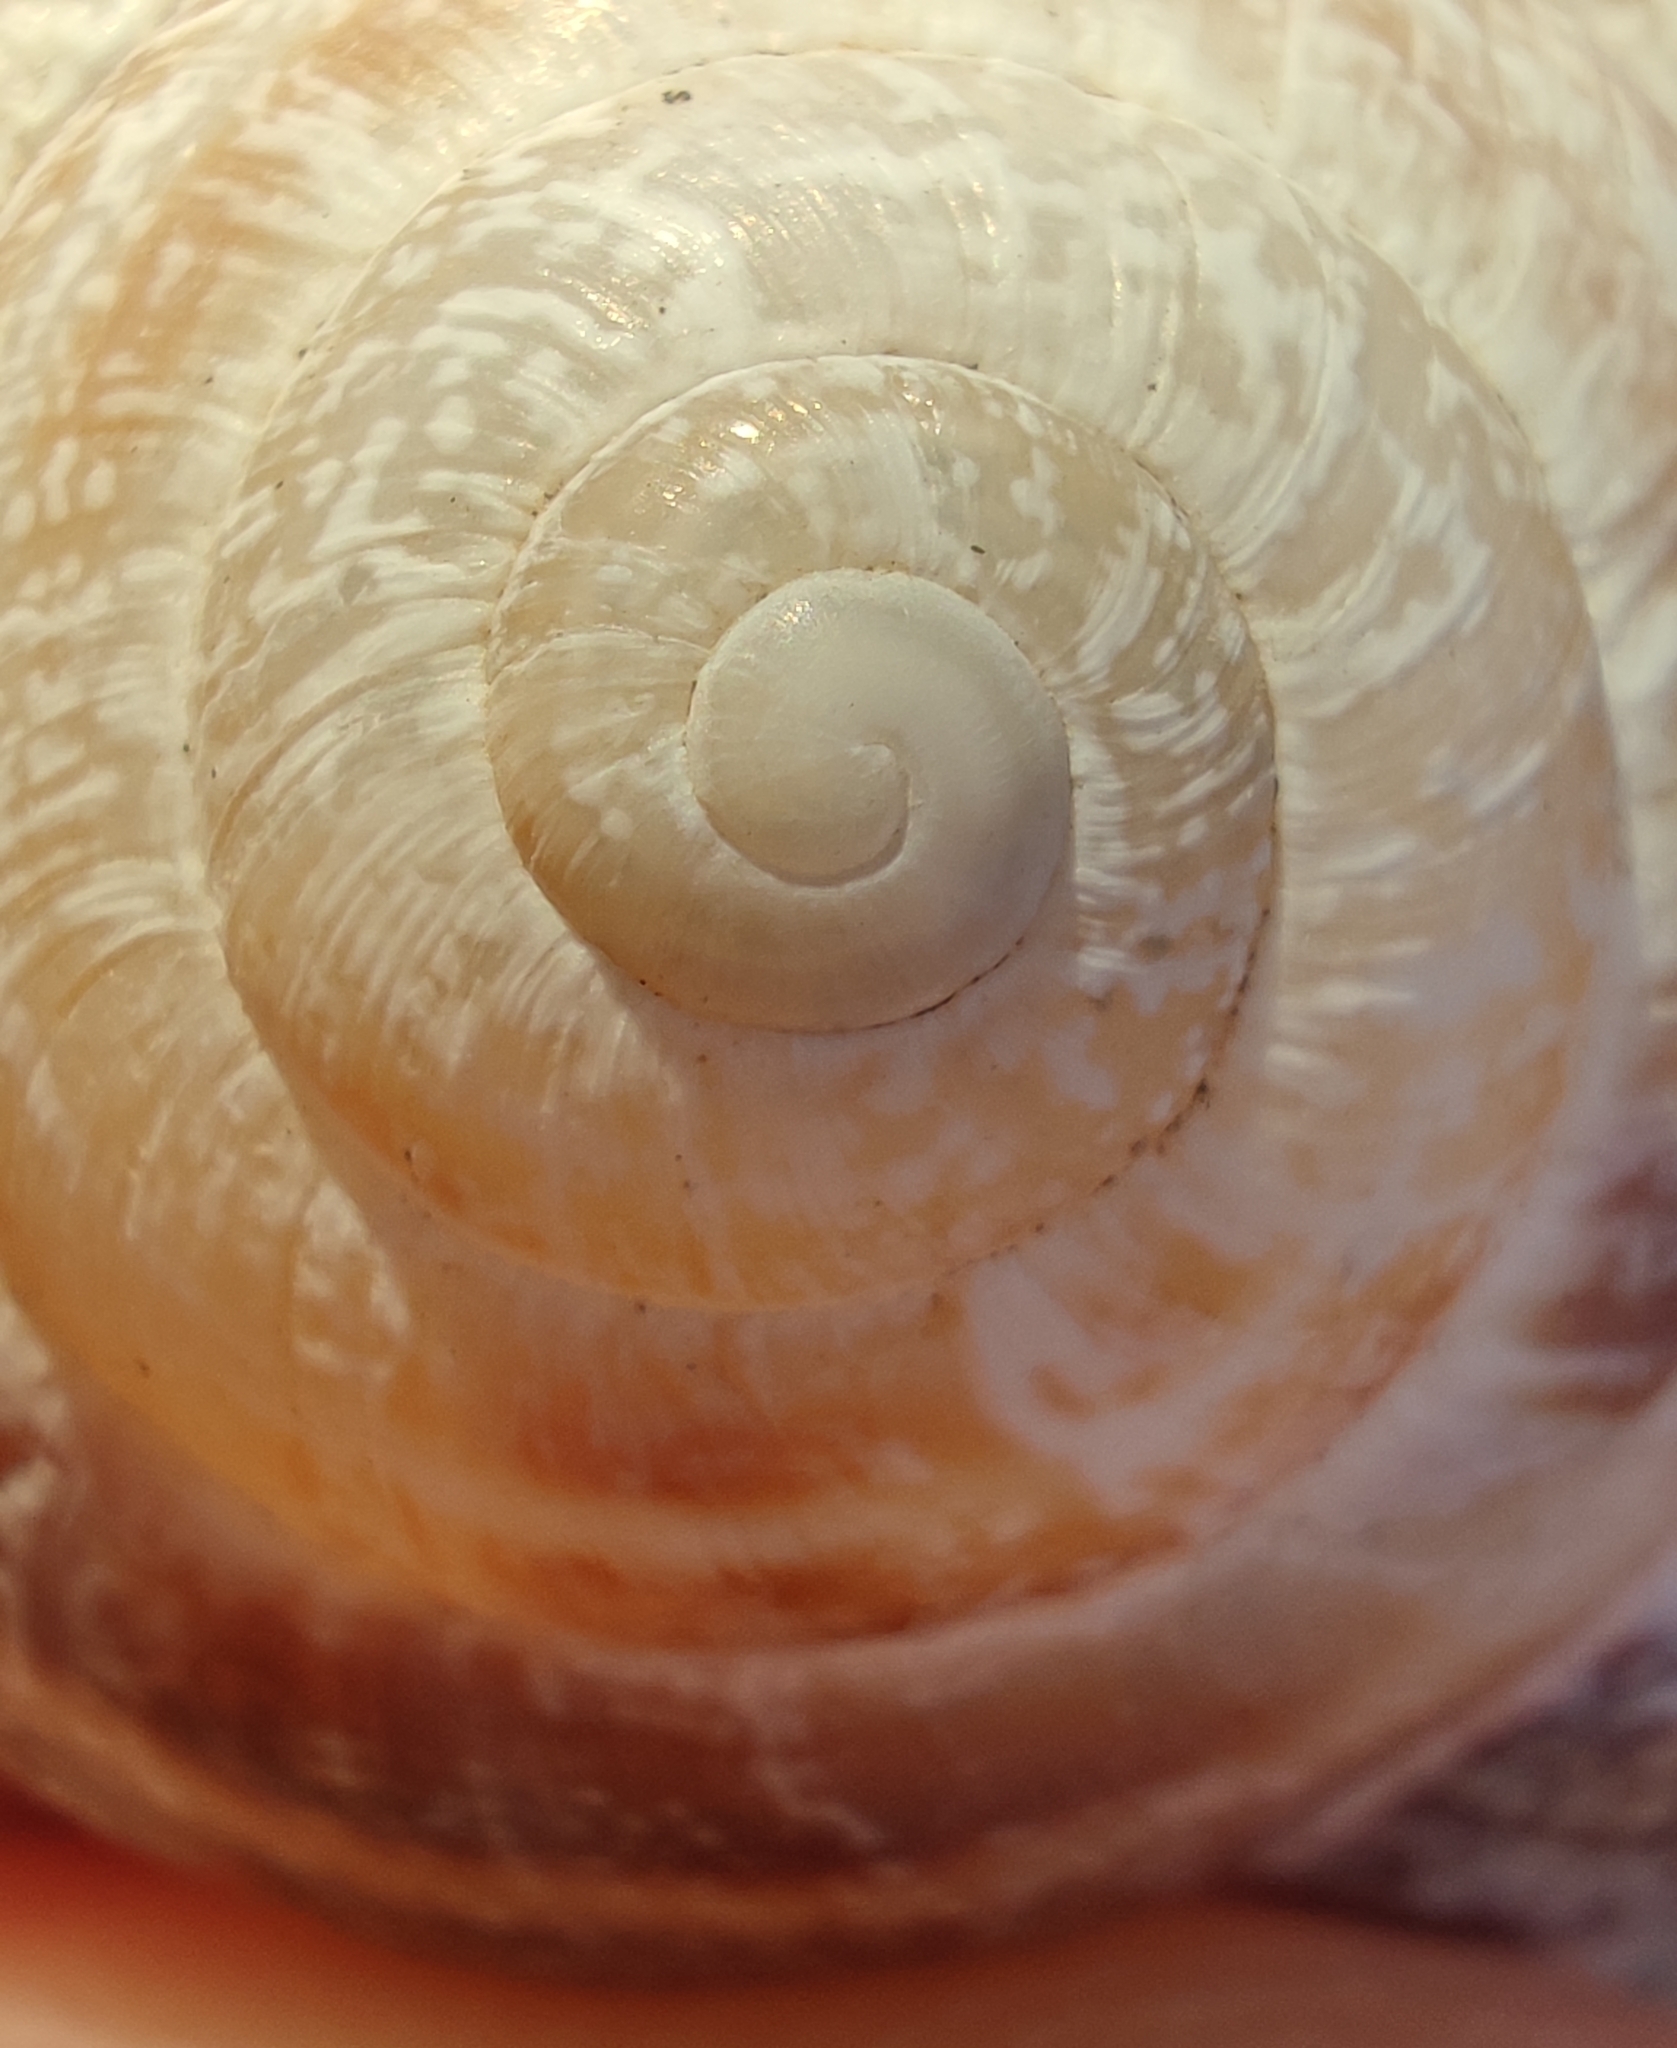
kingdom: Animalia
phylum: Mollusca
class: Gastropoda
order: Stylommatophora
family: Helicidae
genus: Eobania
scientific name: Eobania vermiculata
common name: Chocolateband snail
